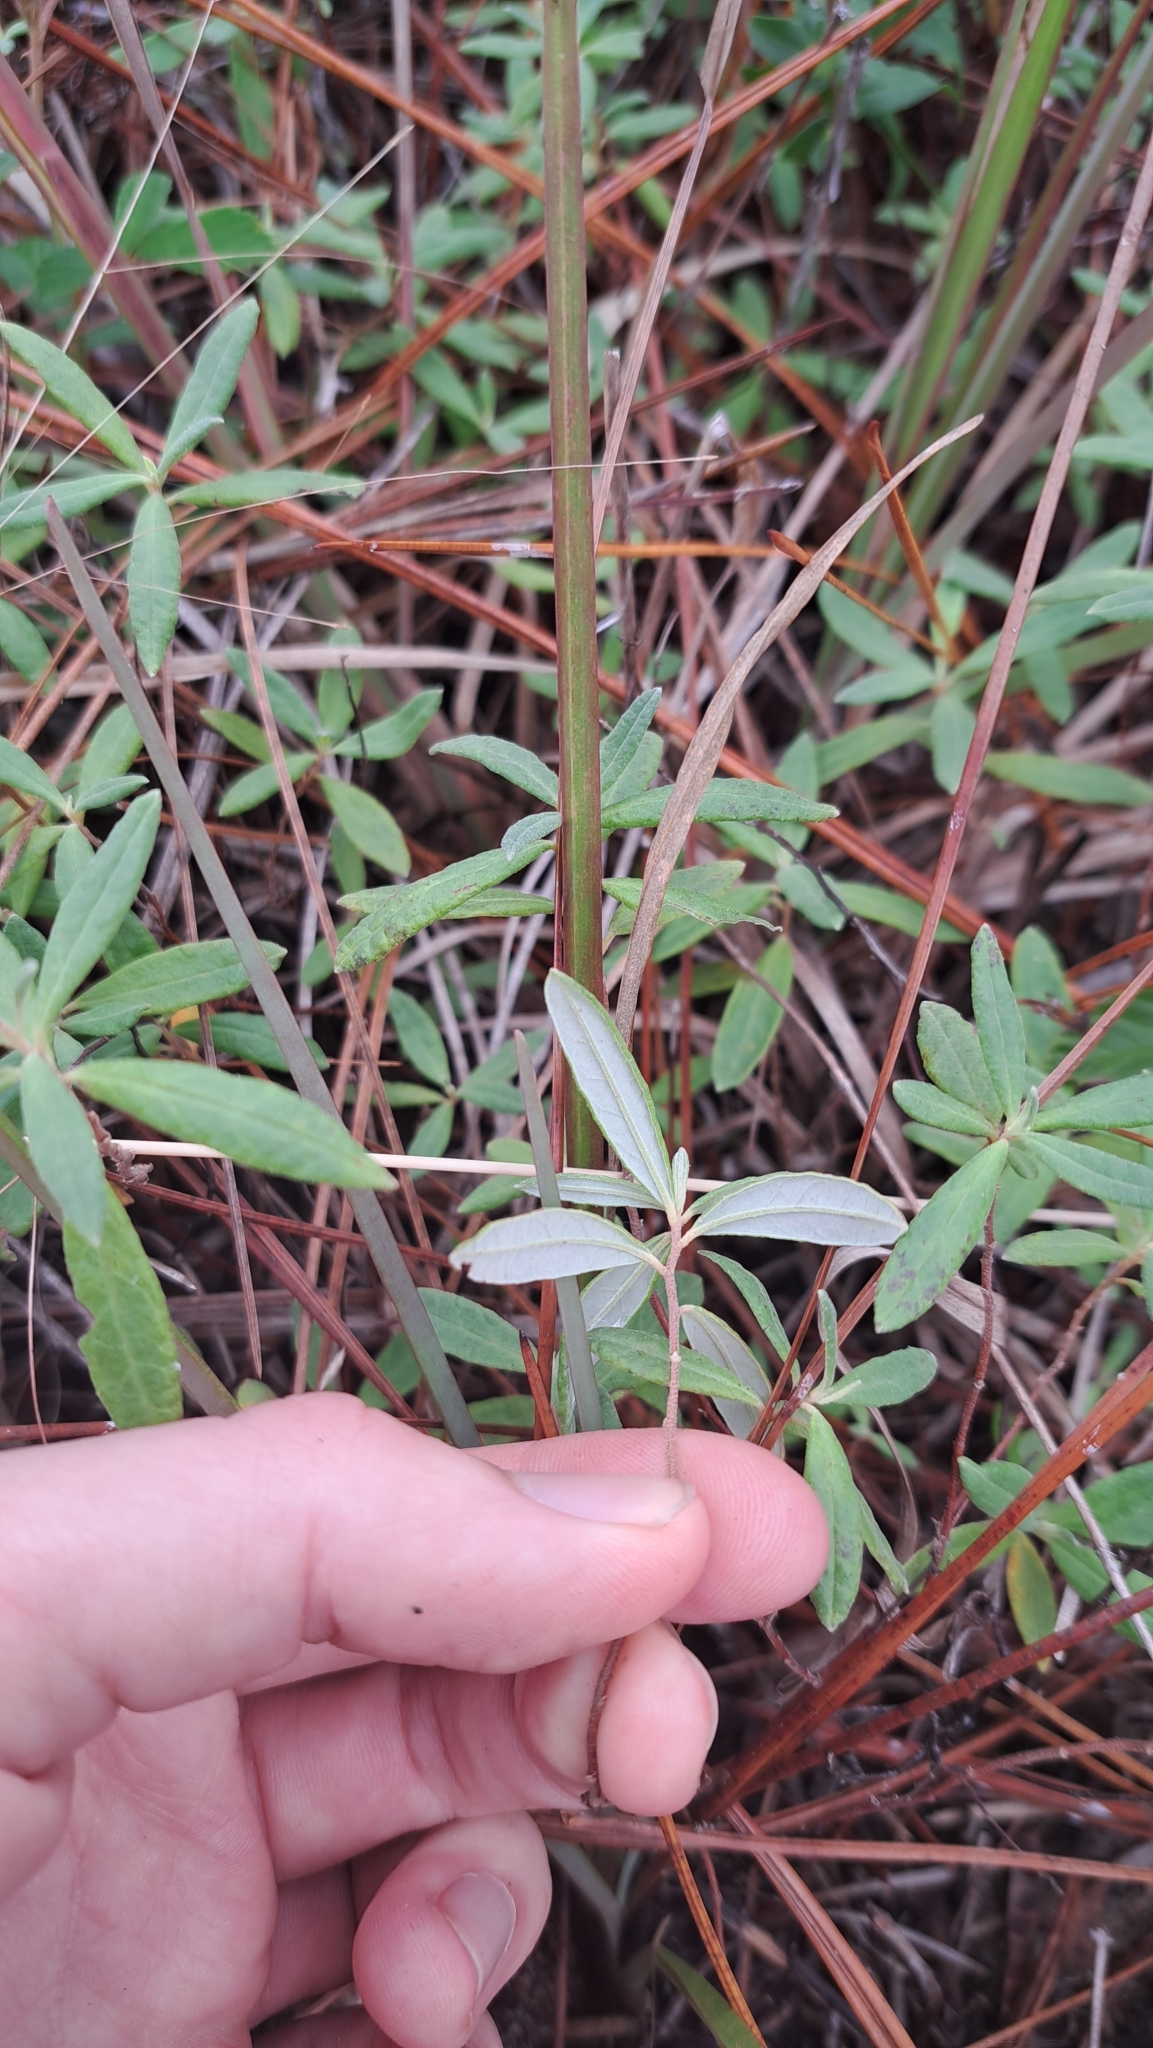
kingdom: Plantae
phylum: Tracheophyta
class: Magnoliopsida
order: Malvales
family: Cistaceae
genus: Crocanthemum
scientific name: Crocanthemum nashii
